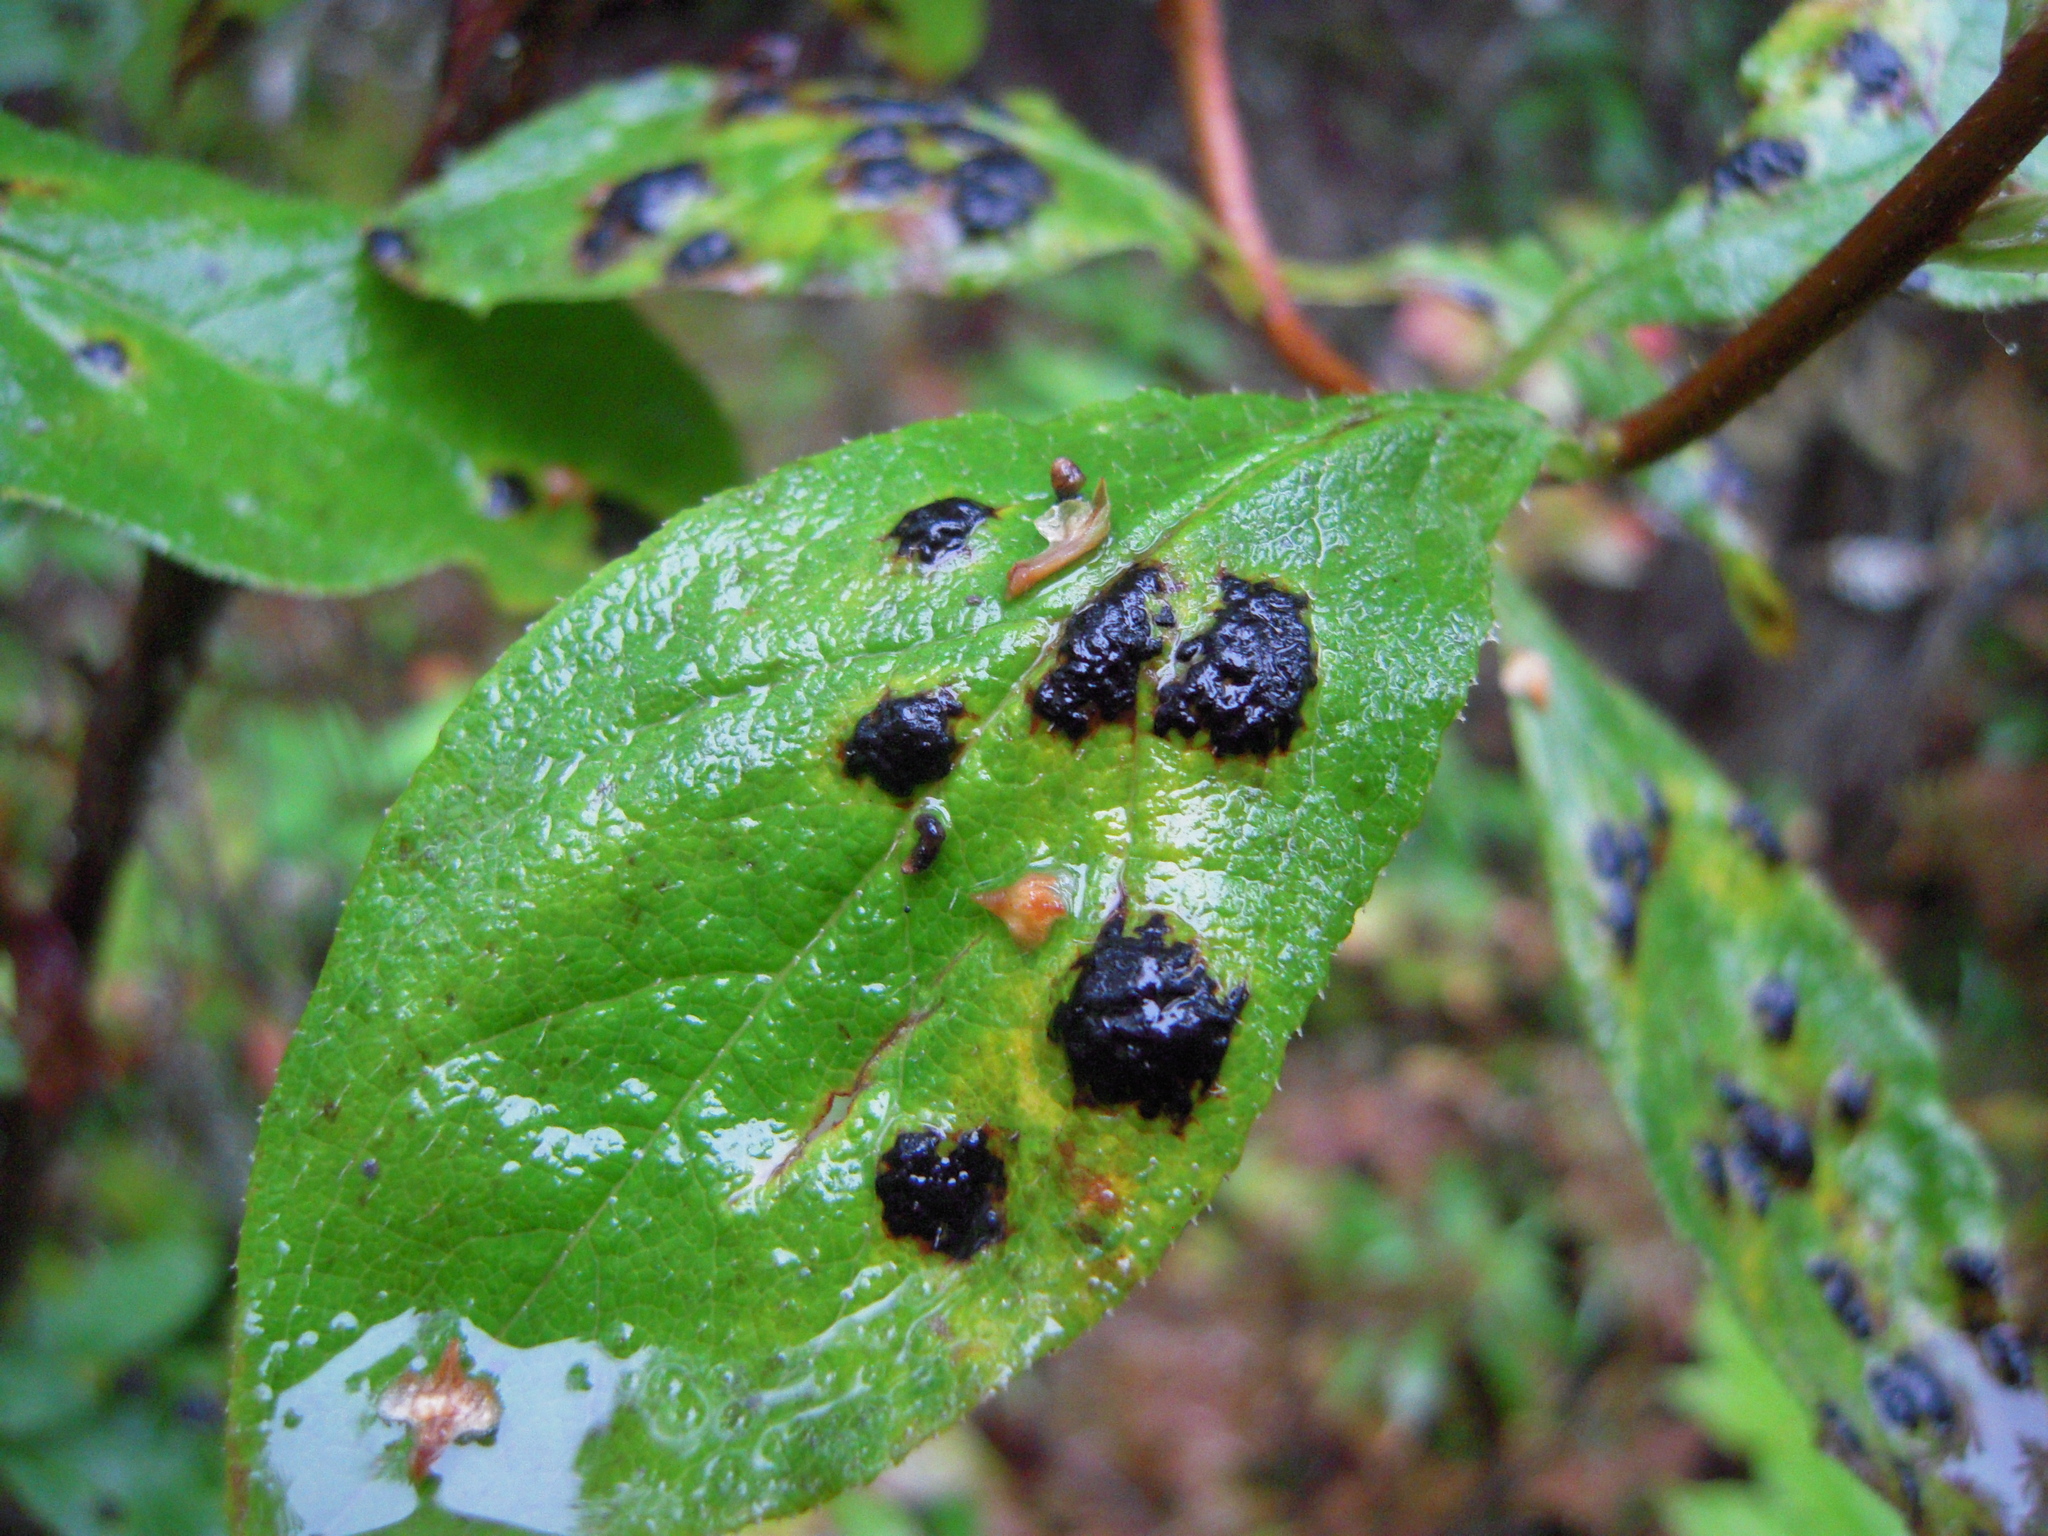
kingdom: Fungi
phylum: Ascomycota
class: Leotiomycetes
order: Rhytismatales
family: Rhytismataceae
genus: Rhytisma
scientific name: Rhytisma
